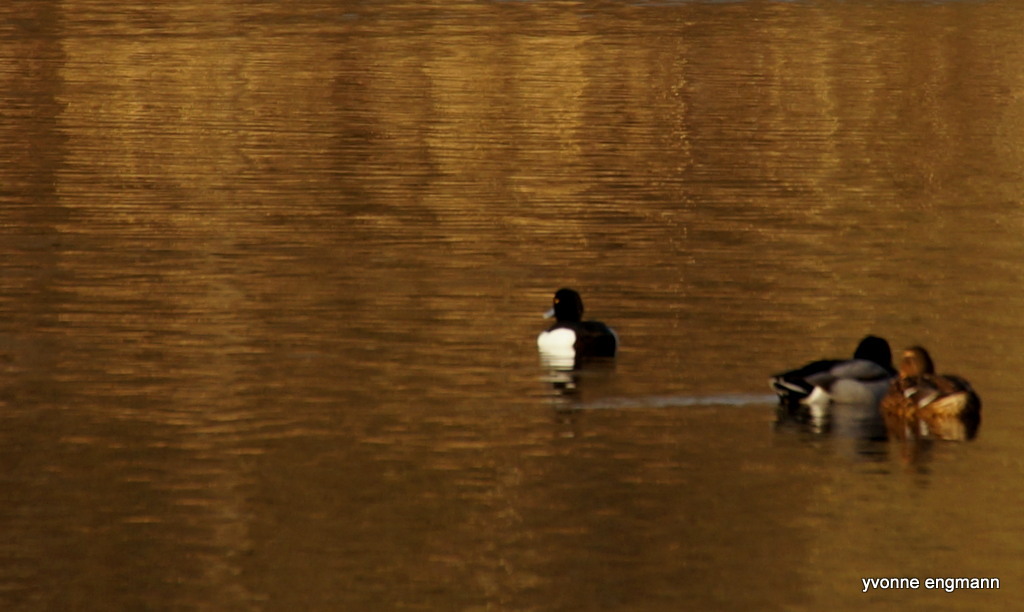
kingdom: Animalia
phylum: Chordata
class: Aves
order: Anseriformes
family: Anatidae
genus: Aythya
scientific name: Aythya fuligula
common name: Tufted duck
